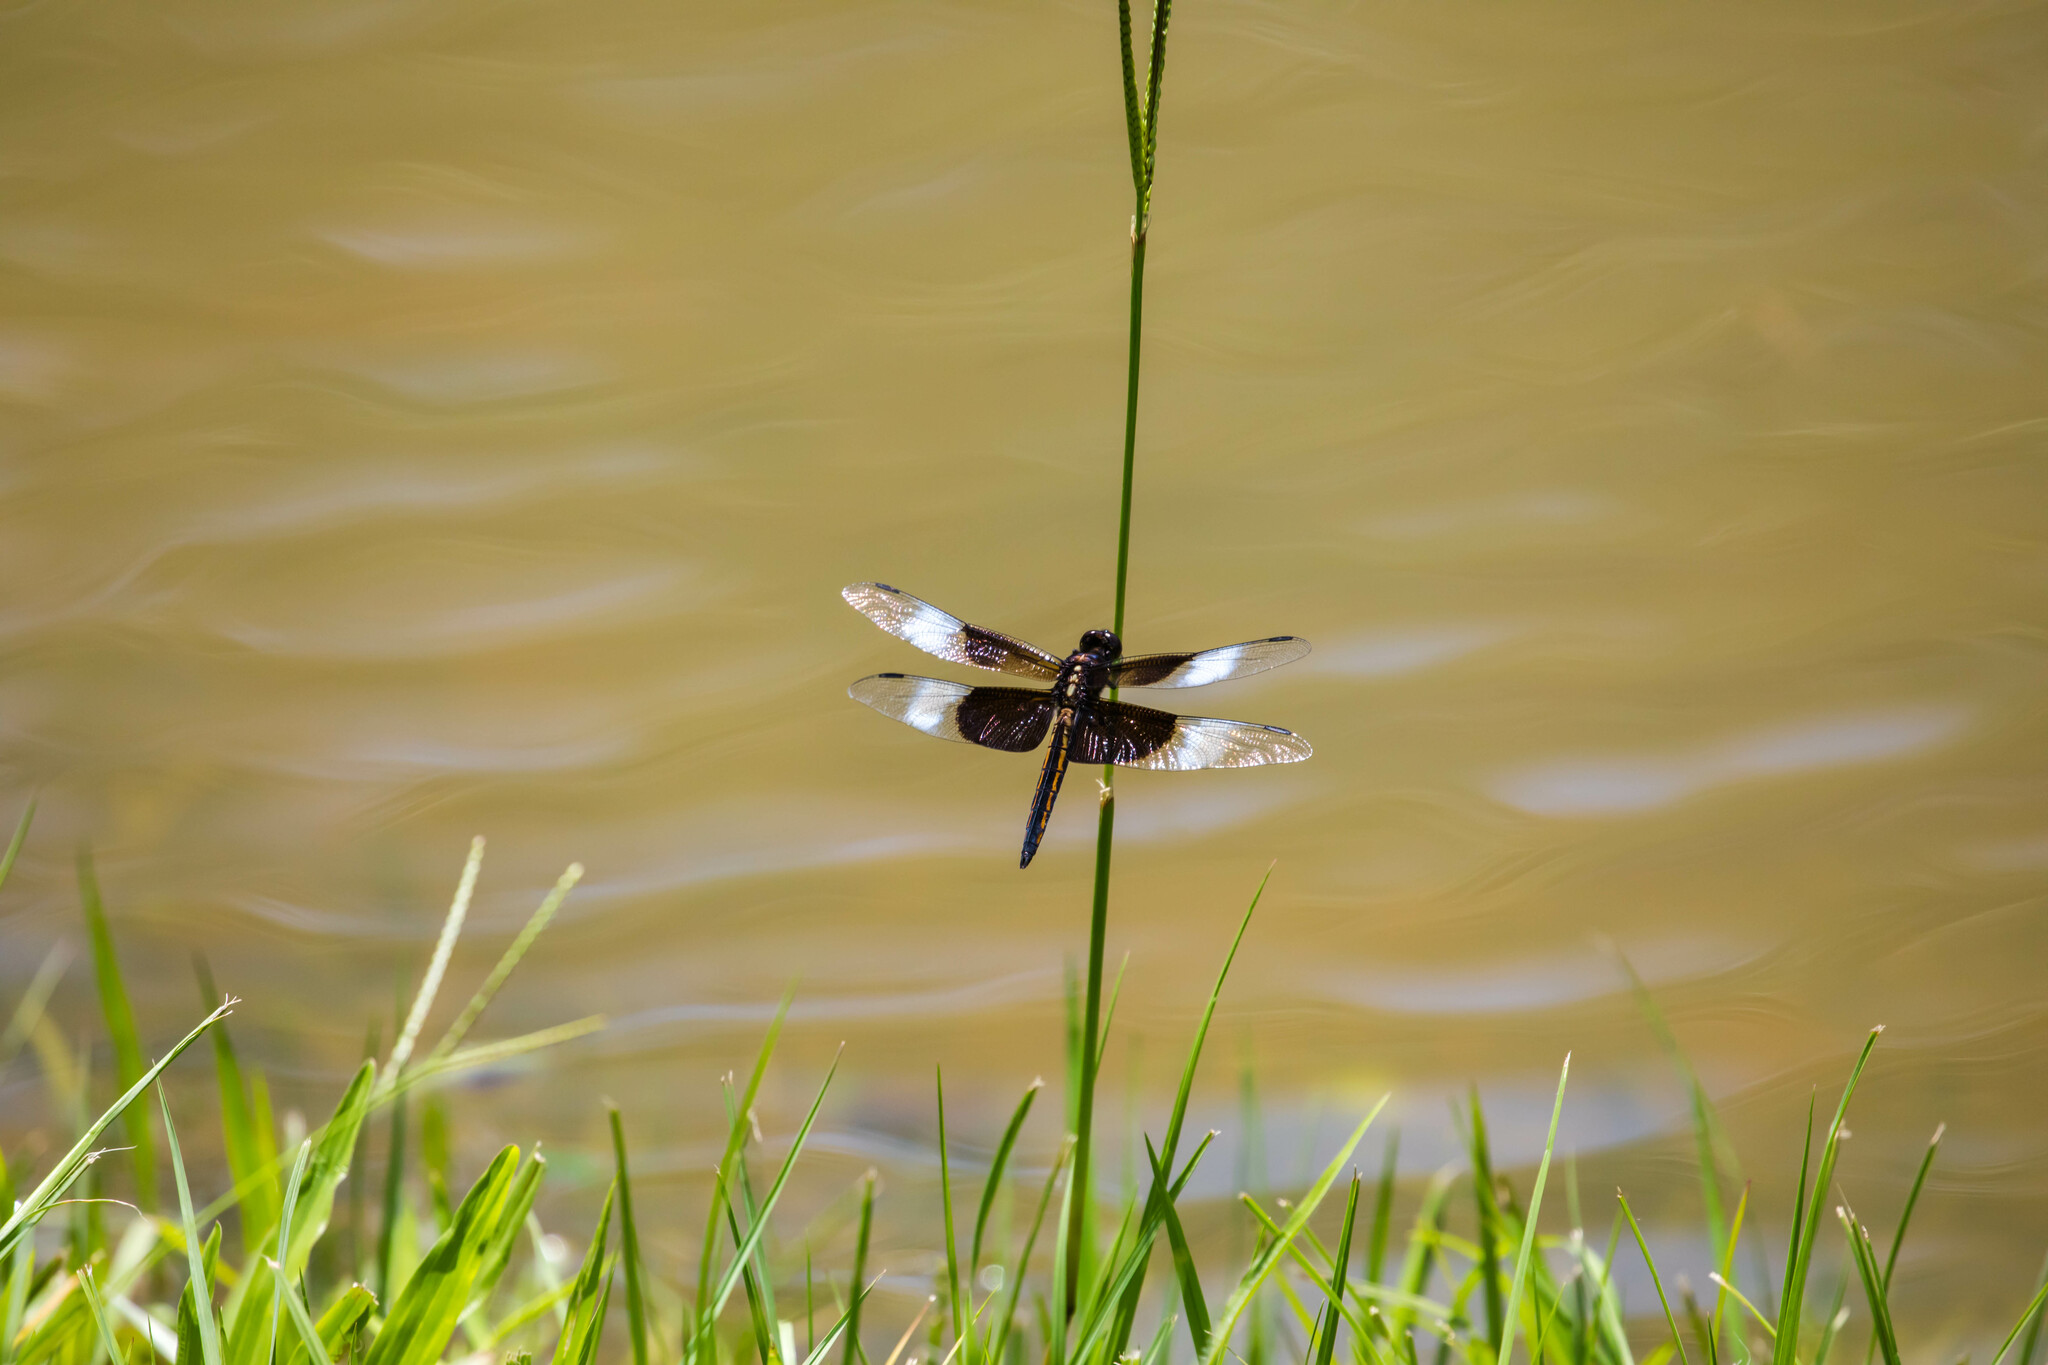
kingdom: Animalia
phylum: Arthropoda
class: Insecta
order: Odonata
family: Libellulidae
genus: Libellula
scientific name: Libellula luctuosa
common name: Widow skimmer
